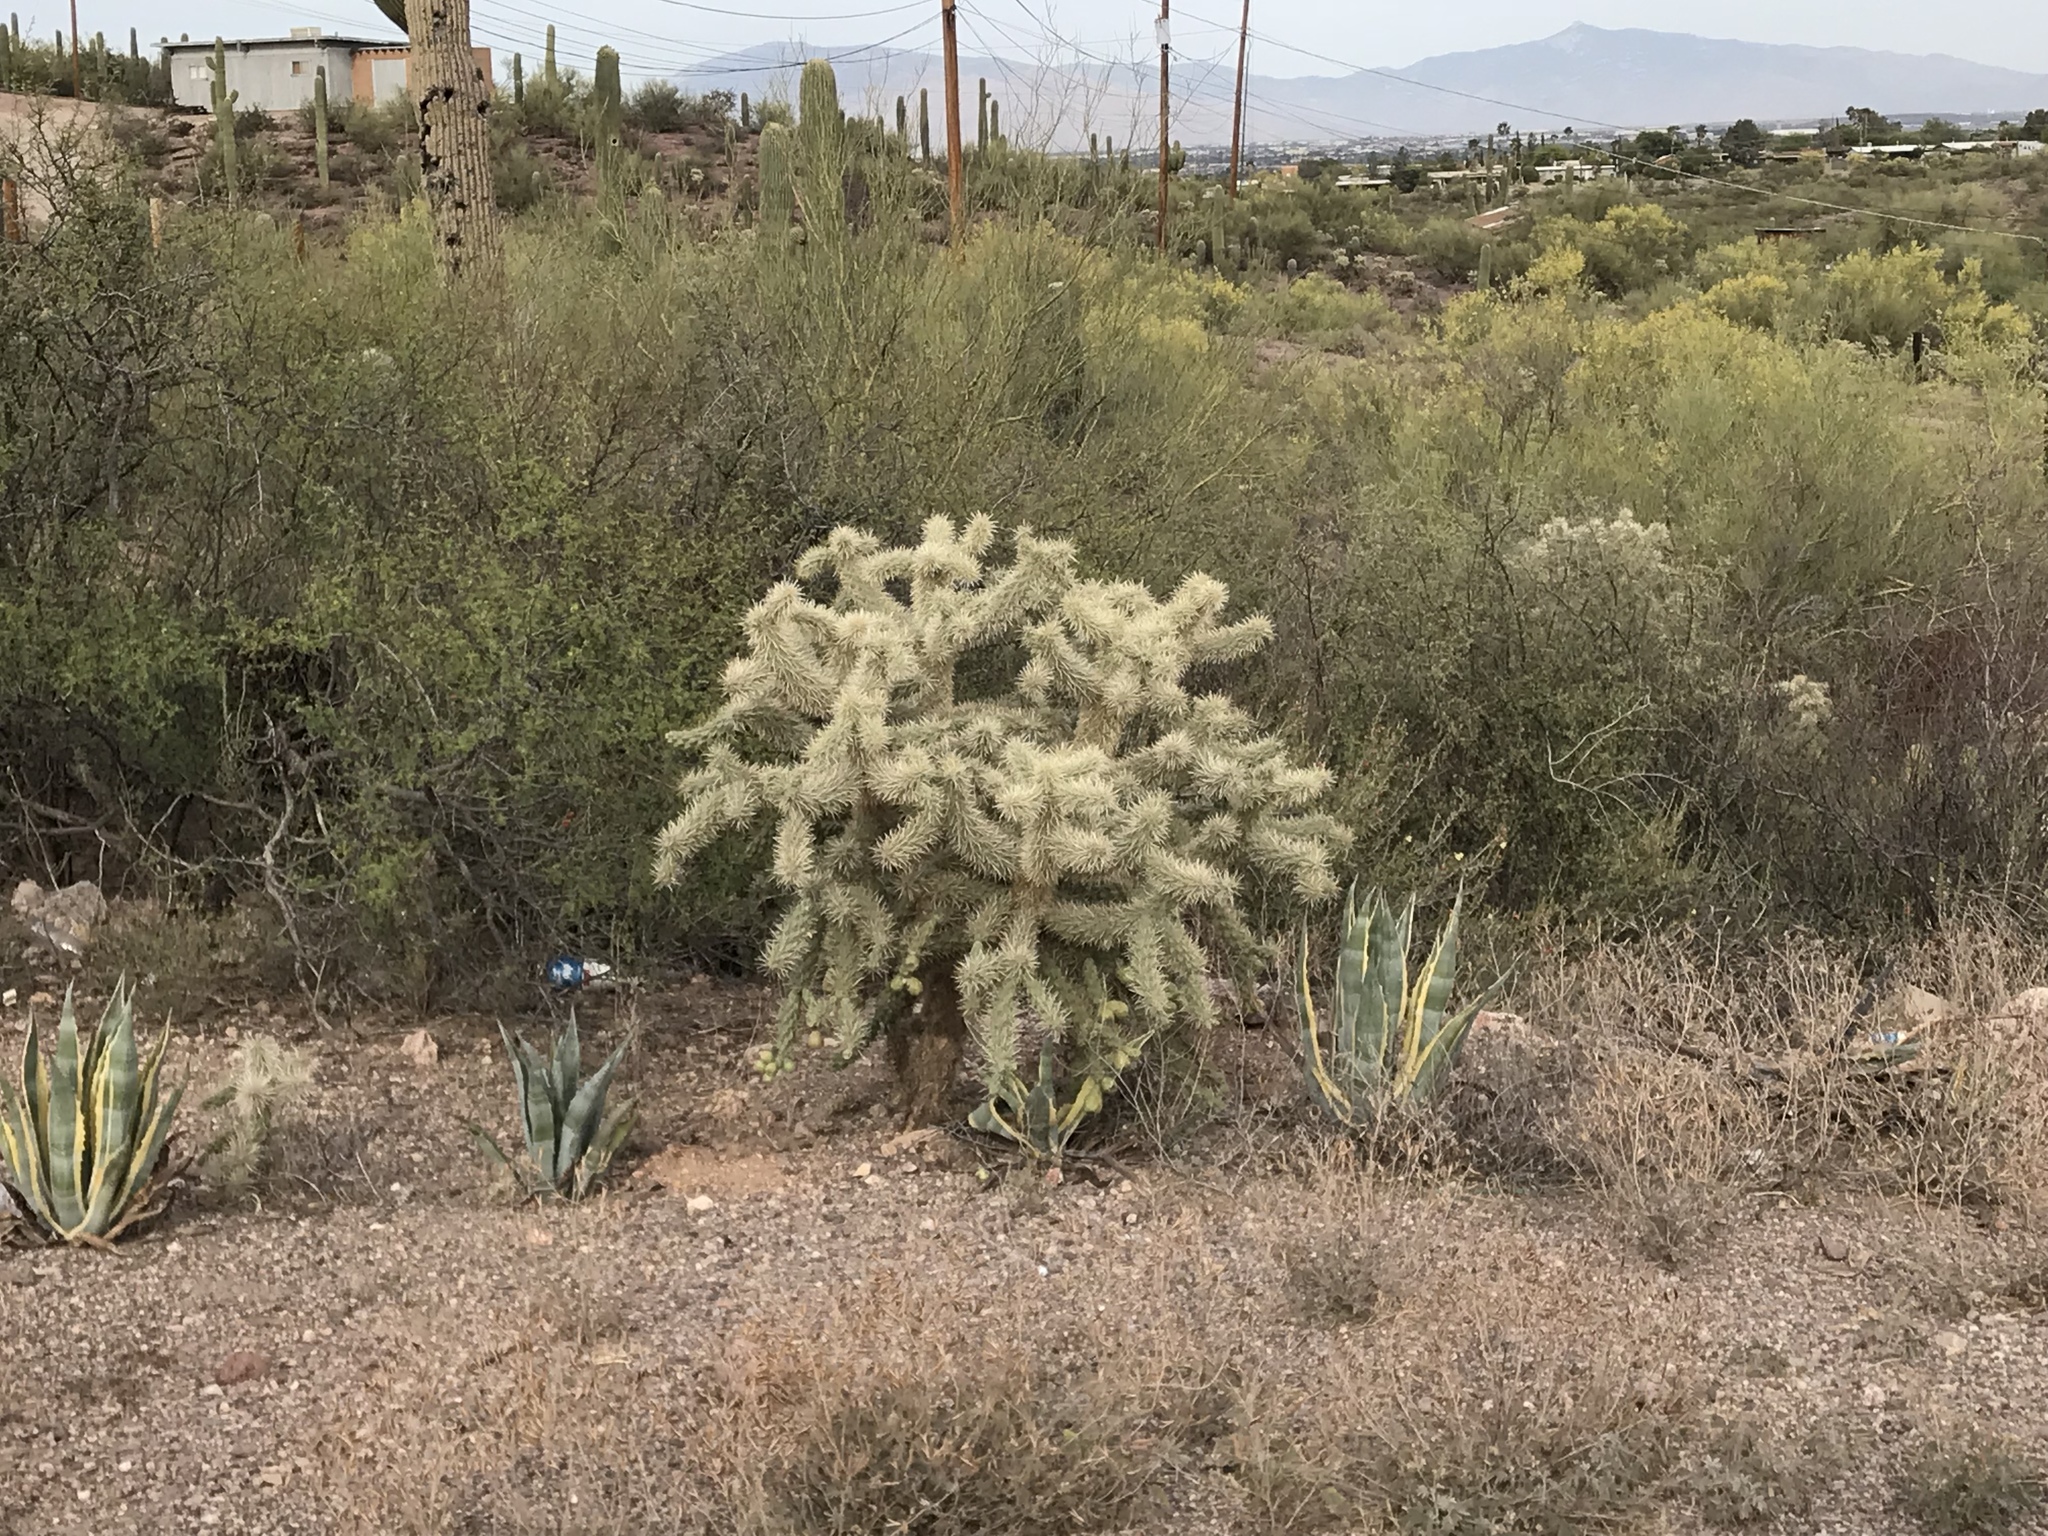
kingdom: Plantae
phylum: Tracheophyta
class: Magnoliopsida
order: Caryophyllales
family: Cactaceae
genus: Cylindropuntia
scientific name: Cylindropuntia fulgida
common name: Jumping cholla
